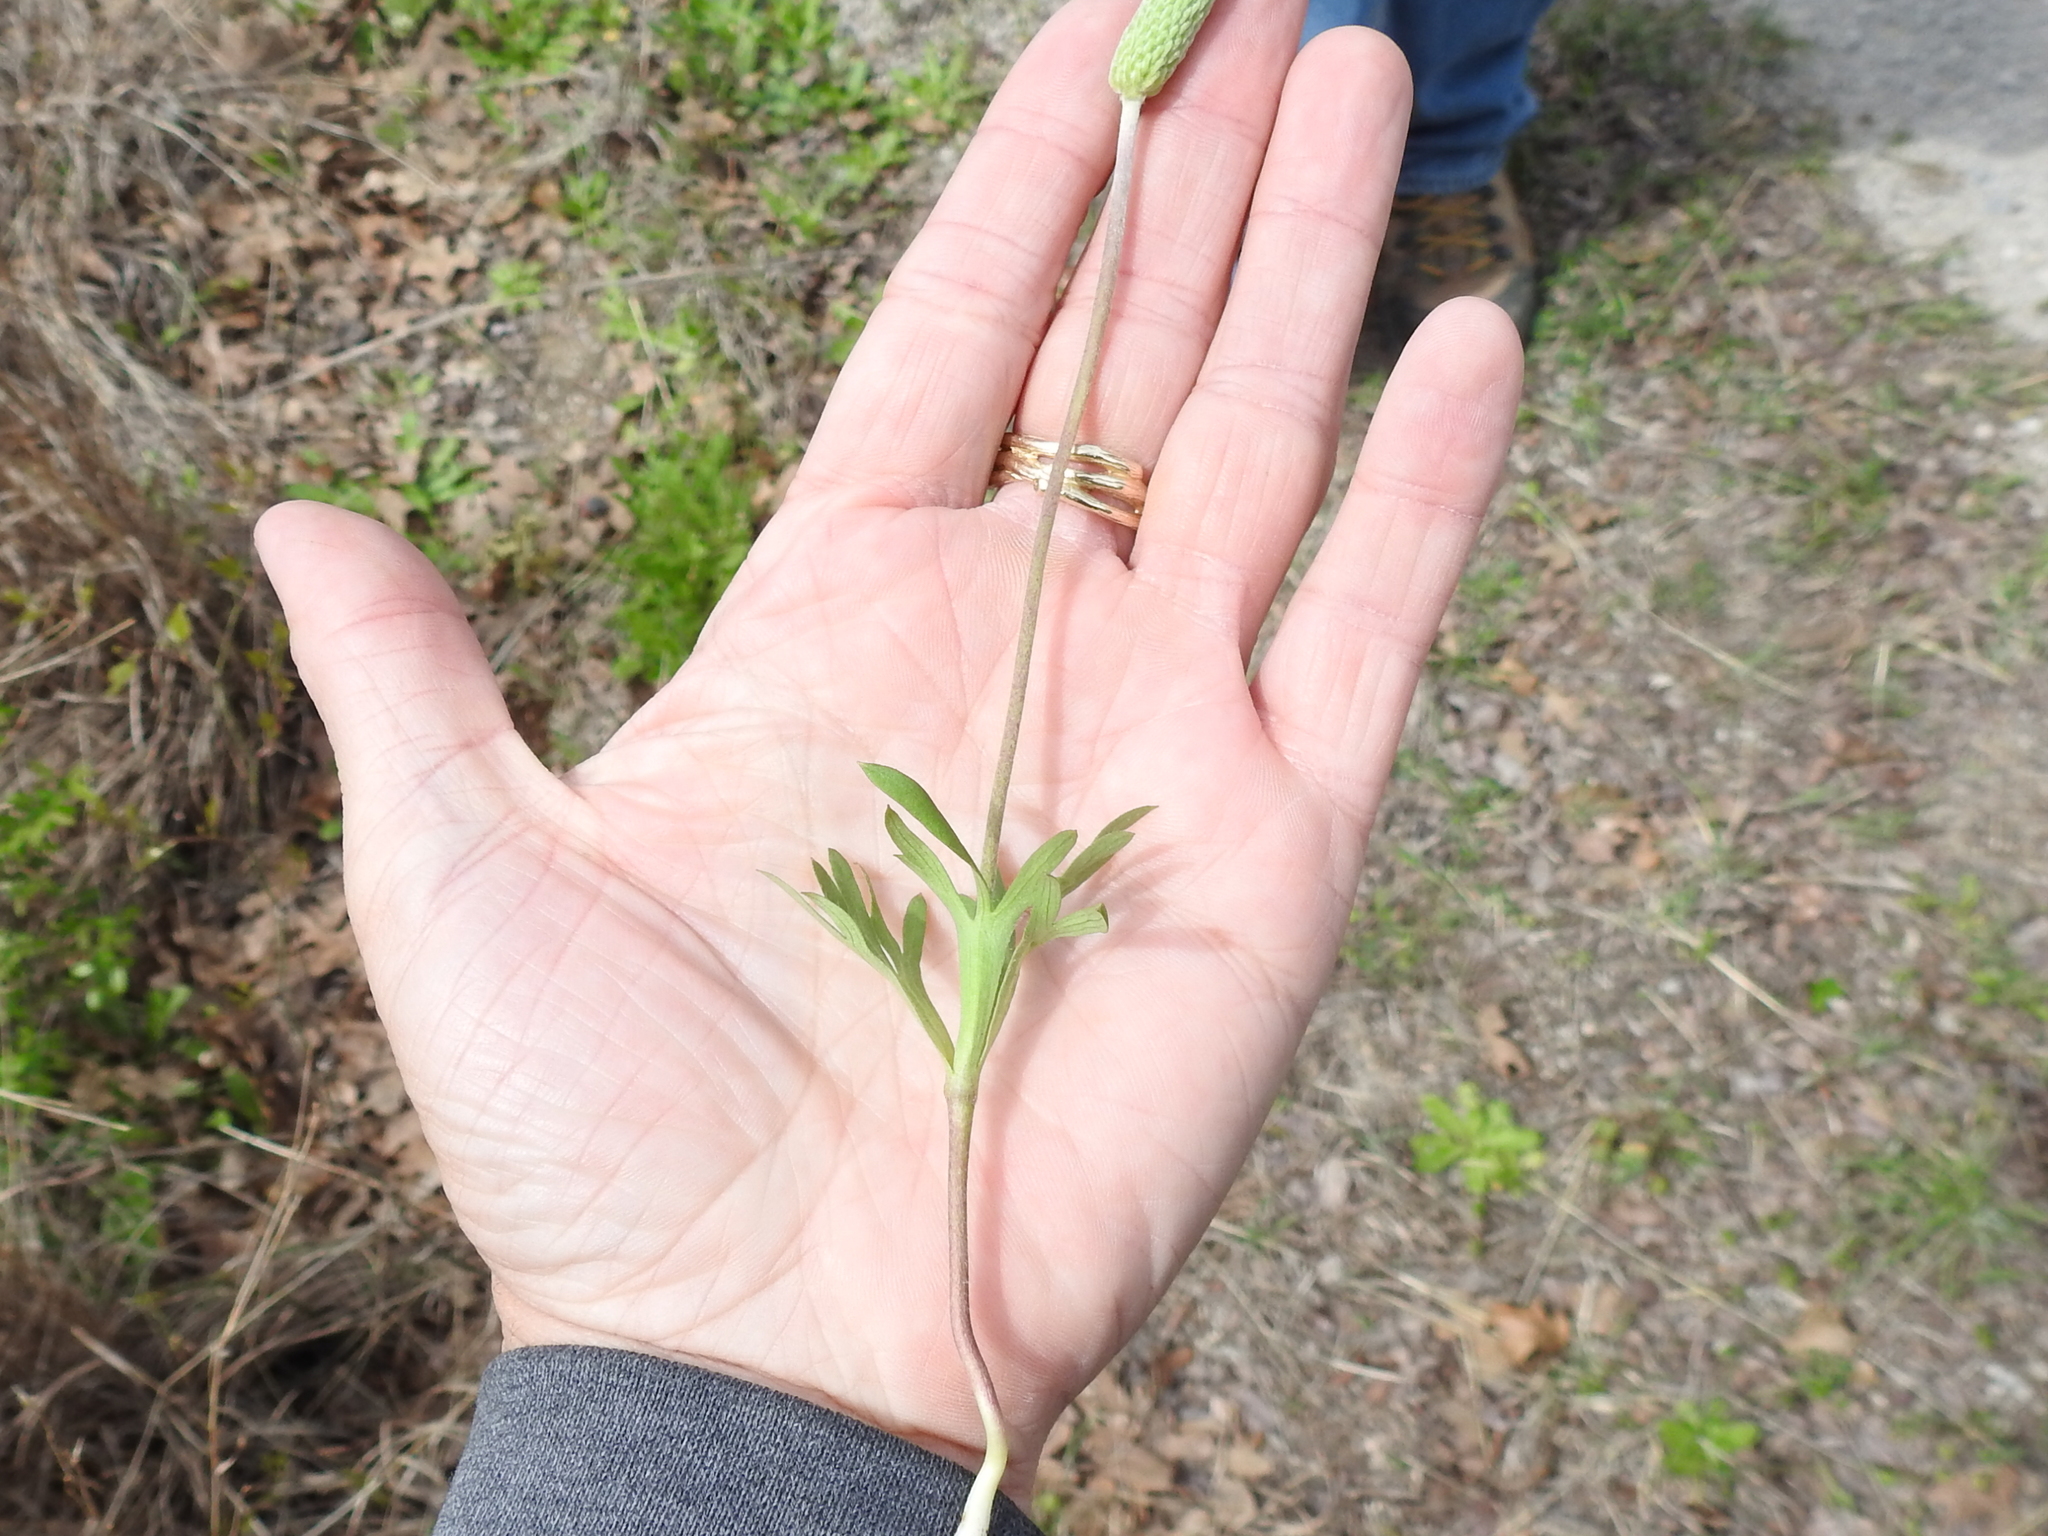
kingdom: Plantae
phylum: Tracheophyta
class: Magnoliopsida
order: Ranunculales
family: Ranunculaceae
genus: Anemone
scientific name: Anemone berlandieri
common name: Ten-petal anemone
